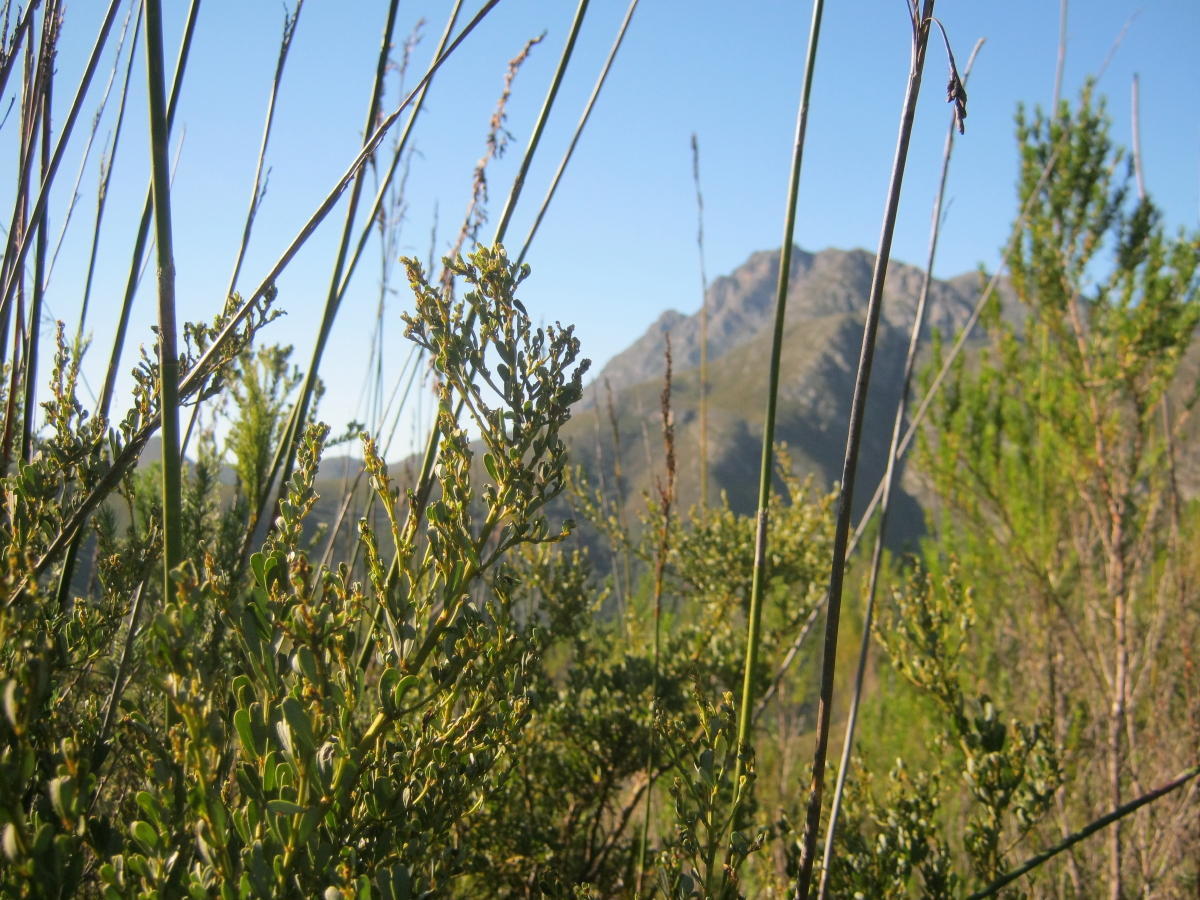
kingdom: Plantae
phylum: Tracheophyta
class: Magnoliopsida
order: Fabales
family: Fabaceae
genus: Cyclopia
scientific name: Cyclopia subternata
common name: Honeybush tea
